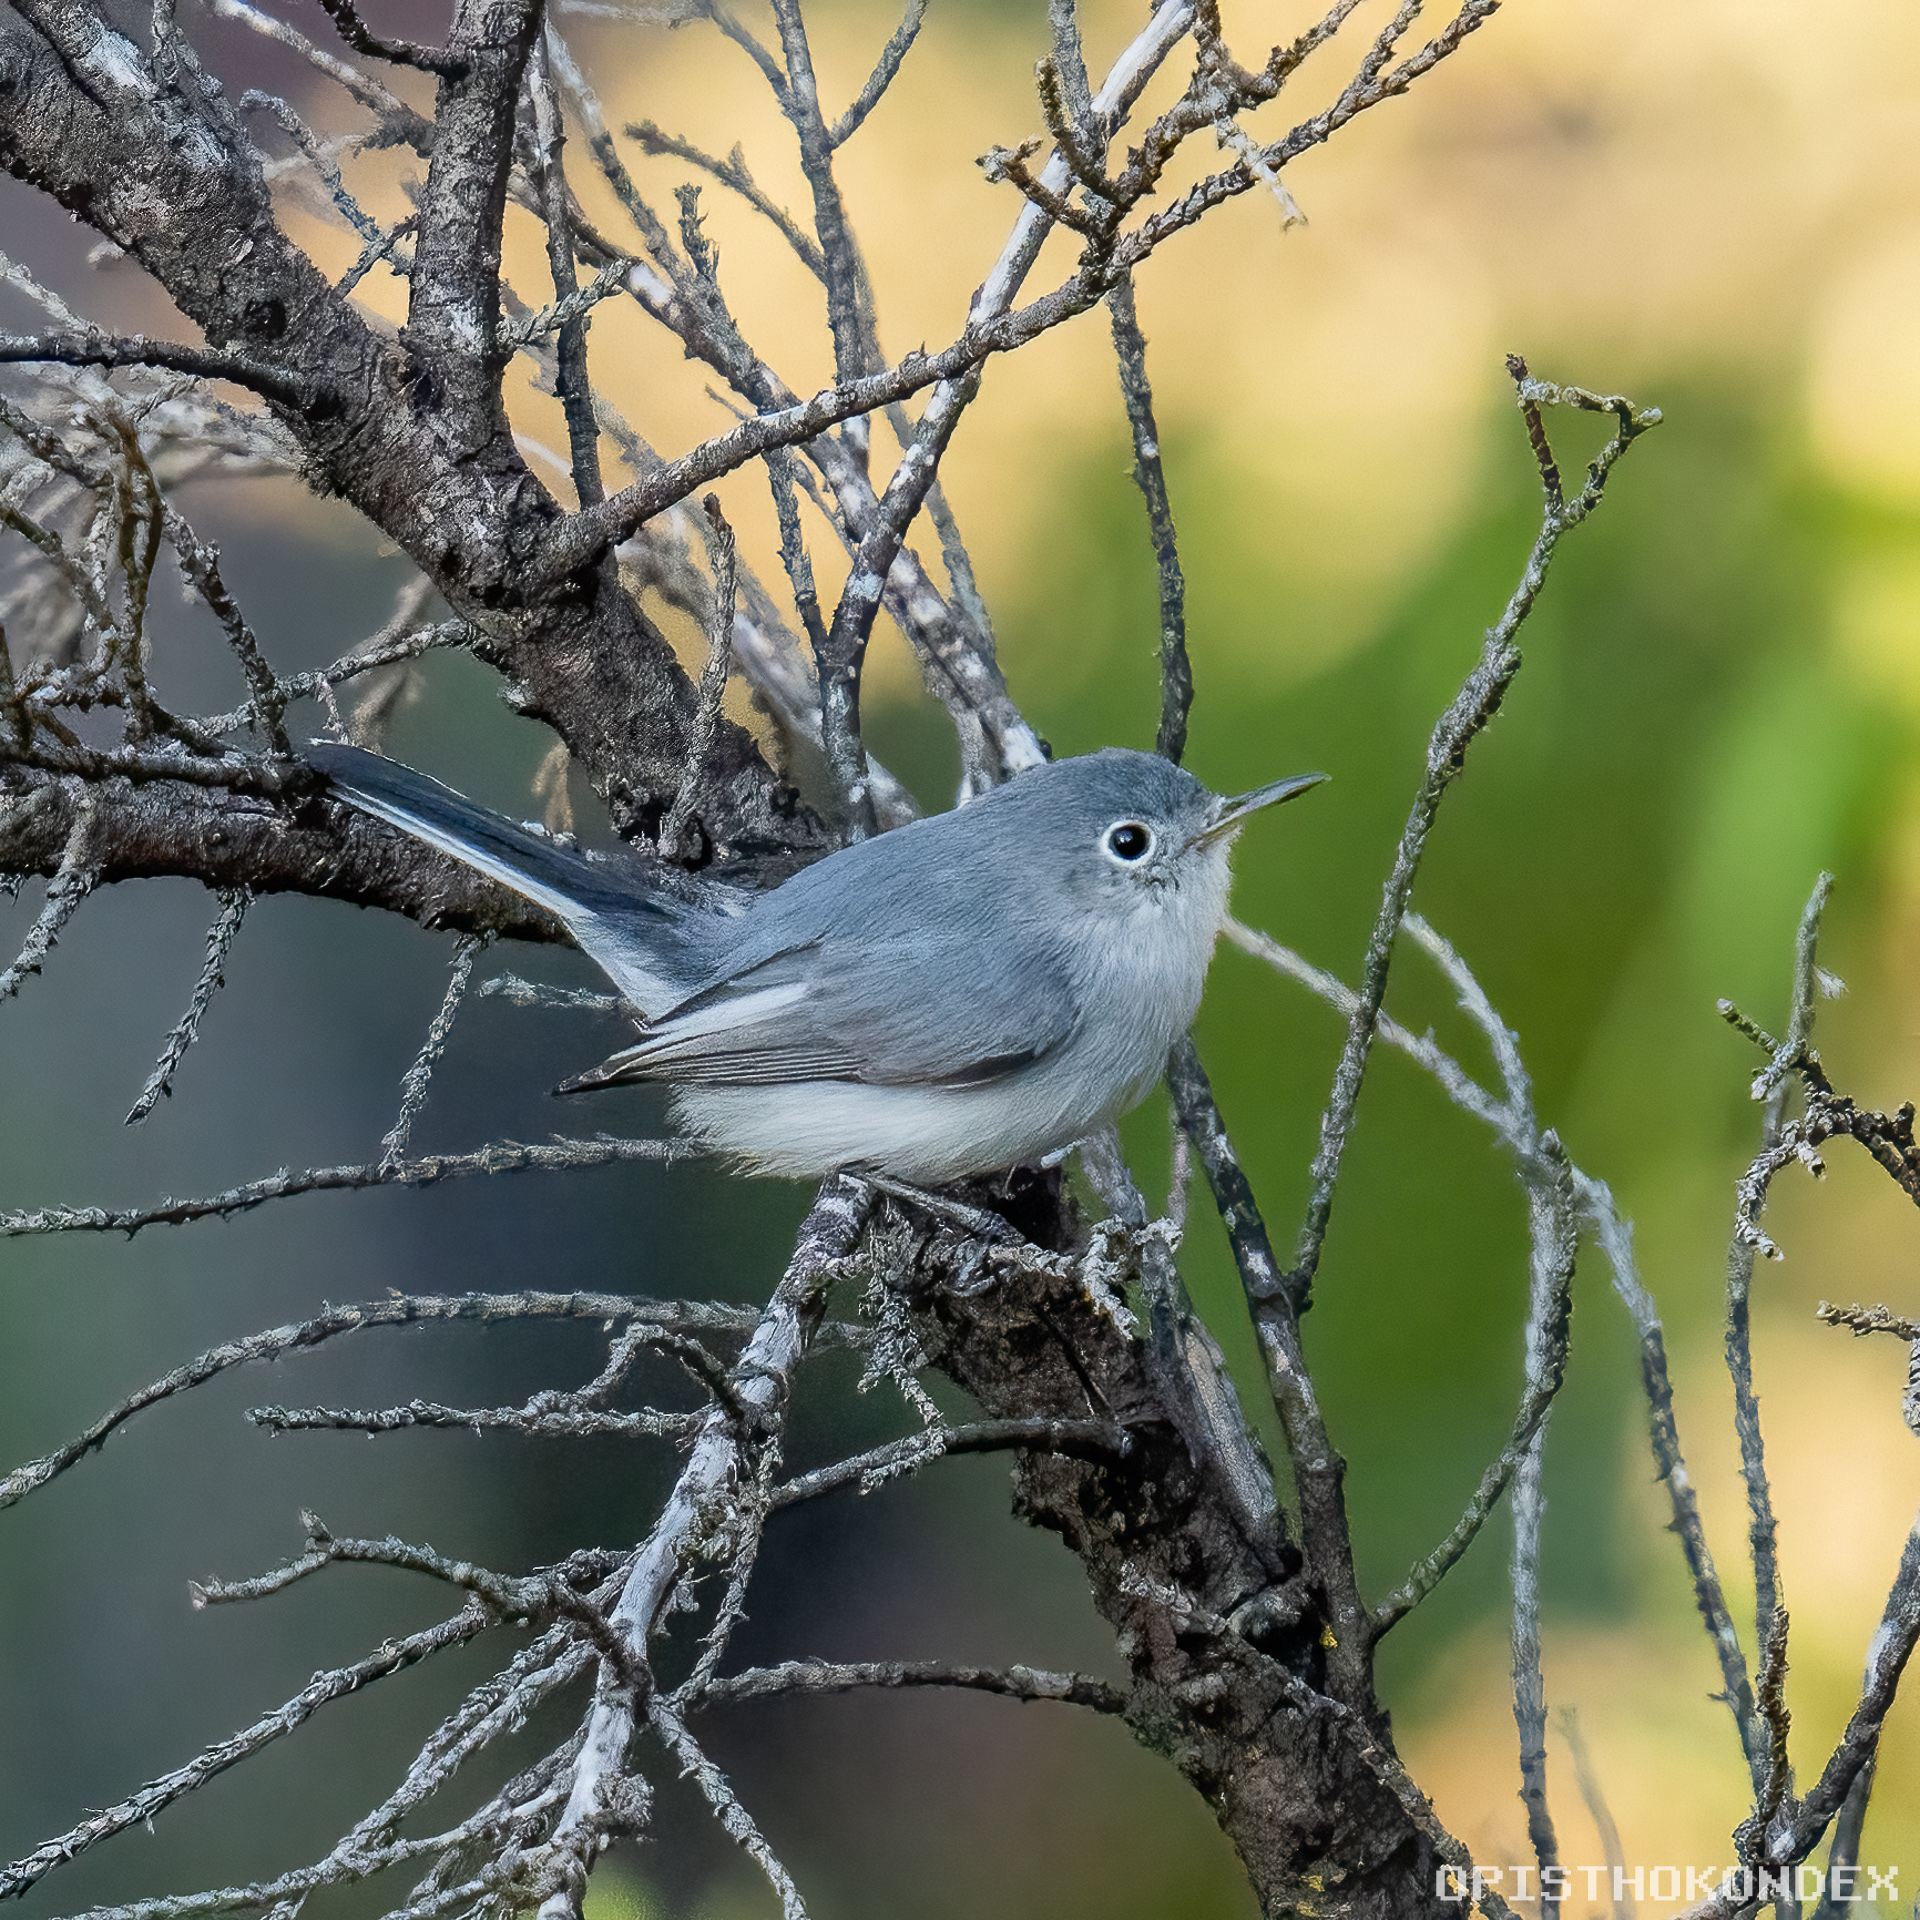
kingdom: Animalia
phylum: Chordata
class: Aves
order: Passeriformes
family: Polioptilidae
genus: Polioptila
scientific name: Polioptila caerulea
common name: Blue-gray gnatcatcher
